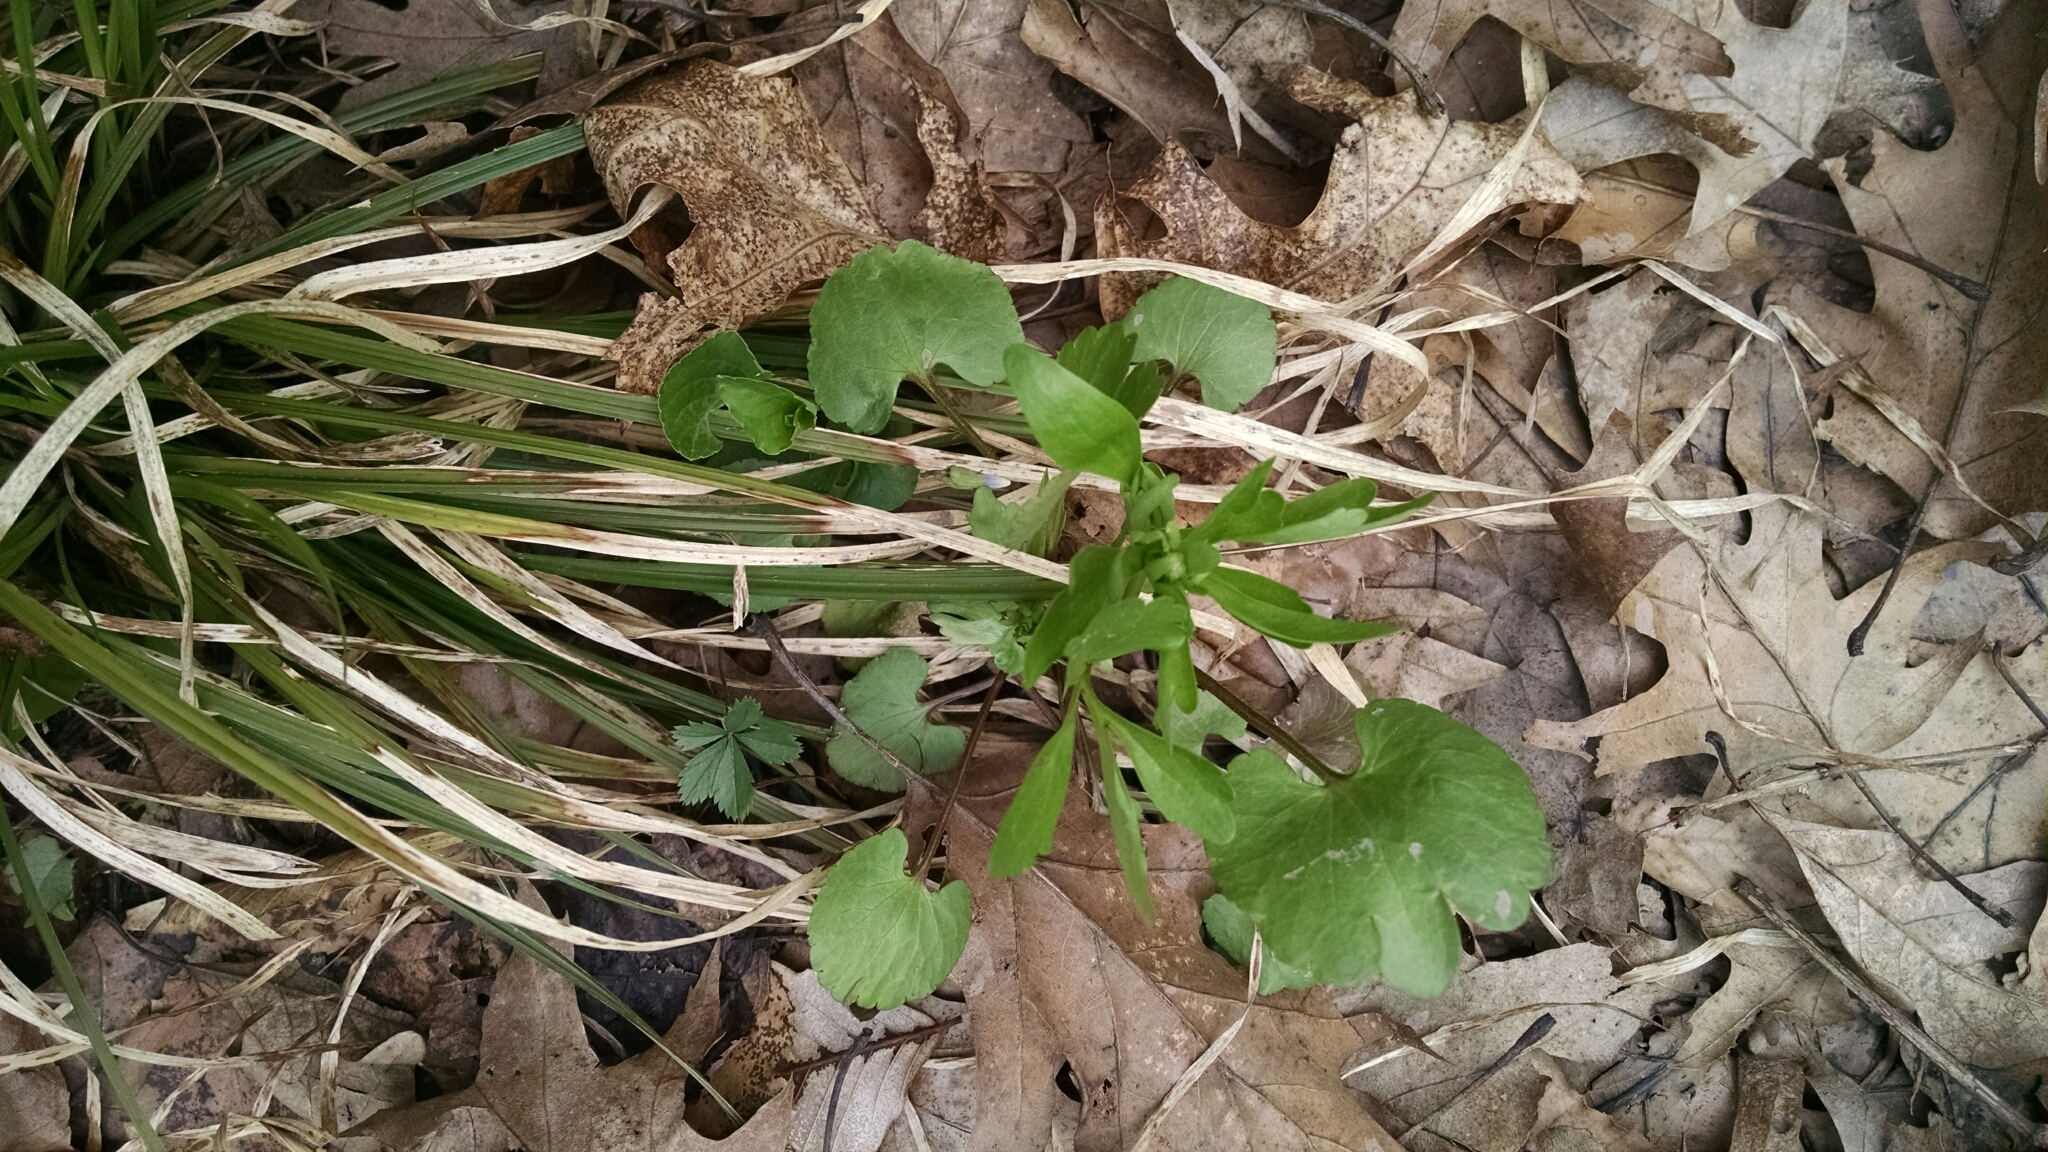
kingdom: Plantae
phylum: Tracheophyta
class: Magnoliopsida
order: Ranunculales
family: Ranunculaceae
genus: Ranunculus
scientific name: Ranunculus abortivus
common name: Early wood buttercup
